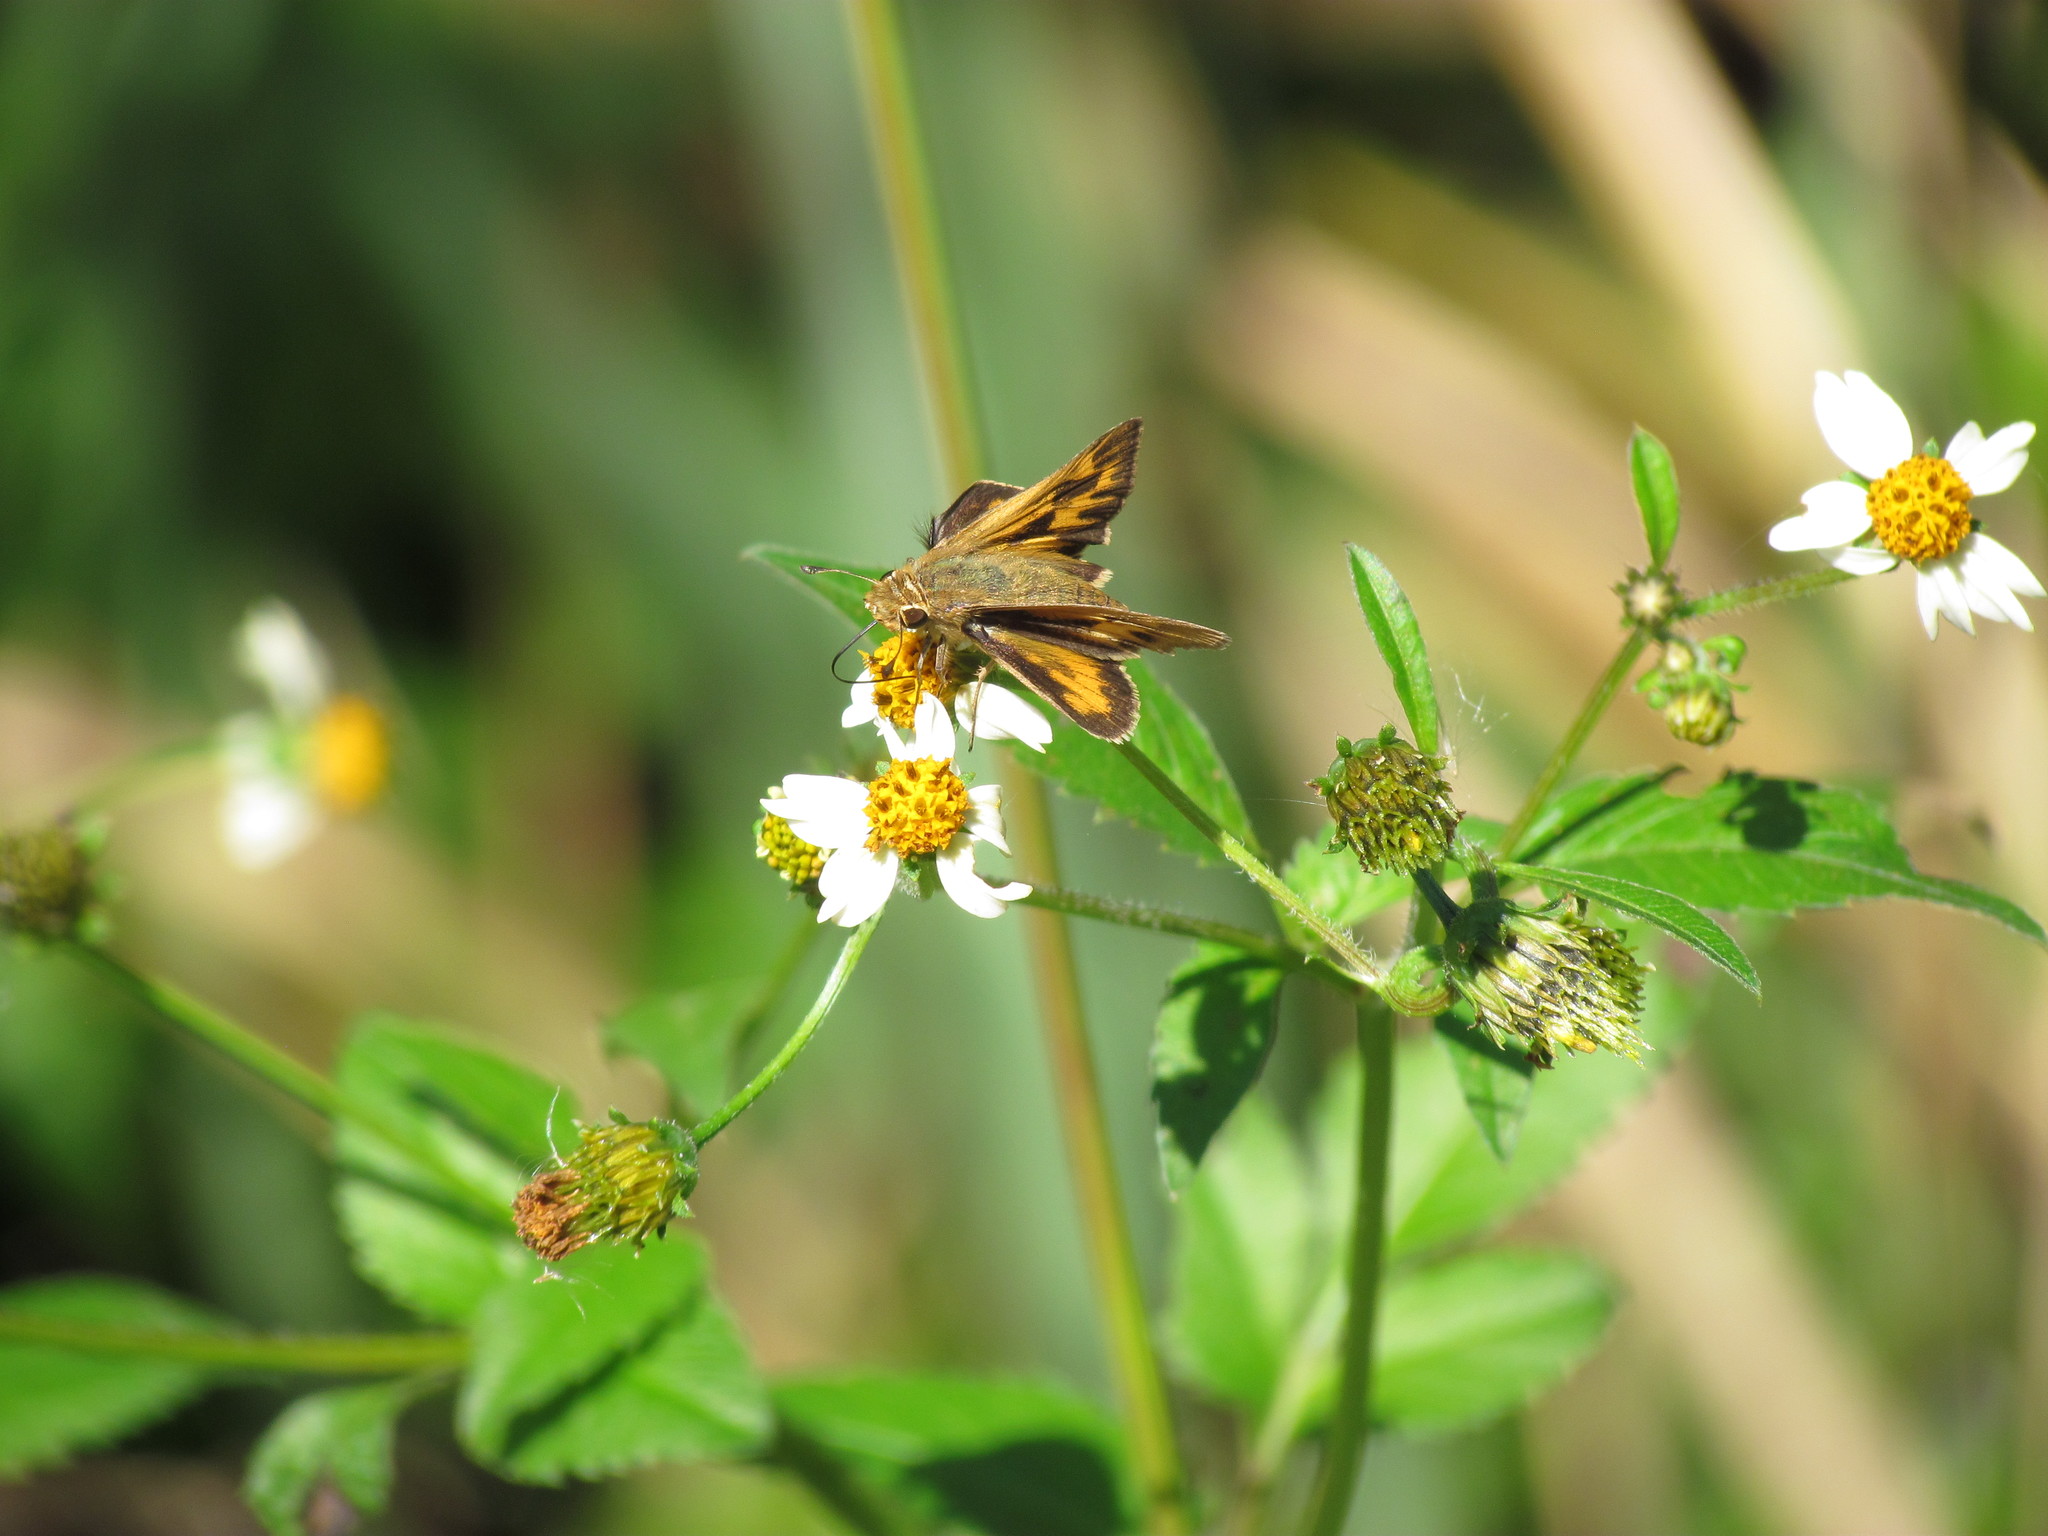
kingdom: Animalia
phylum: Arthropoda
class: Insecta
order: Lepidoptera
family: Hesperiidae
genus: Hylephila
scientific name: Hylephila phyleus
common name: Fiery skipper
